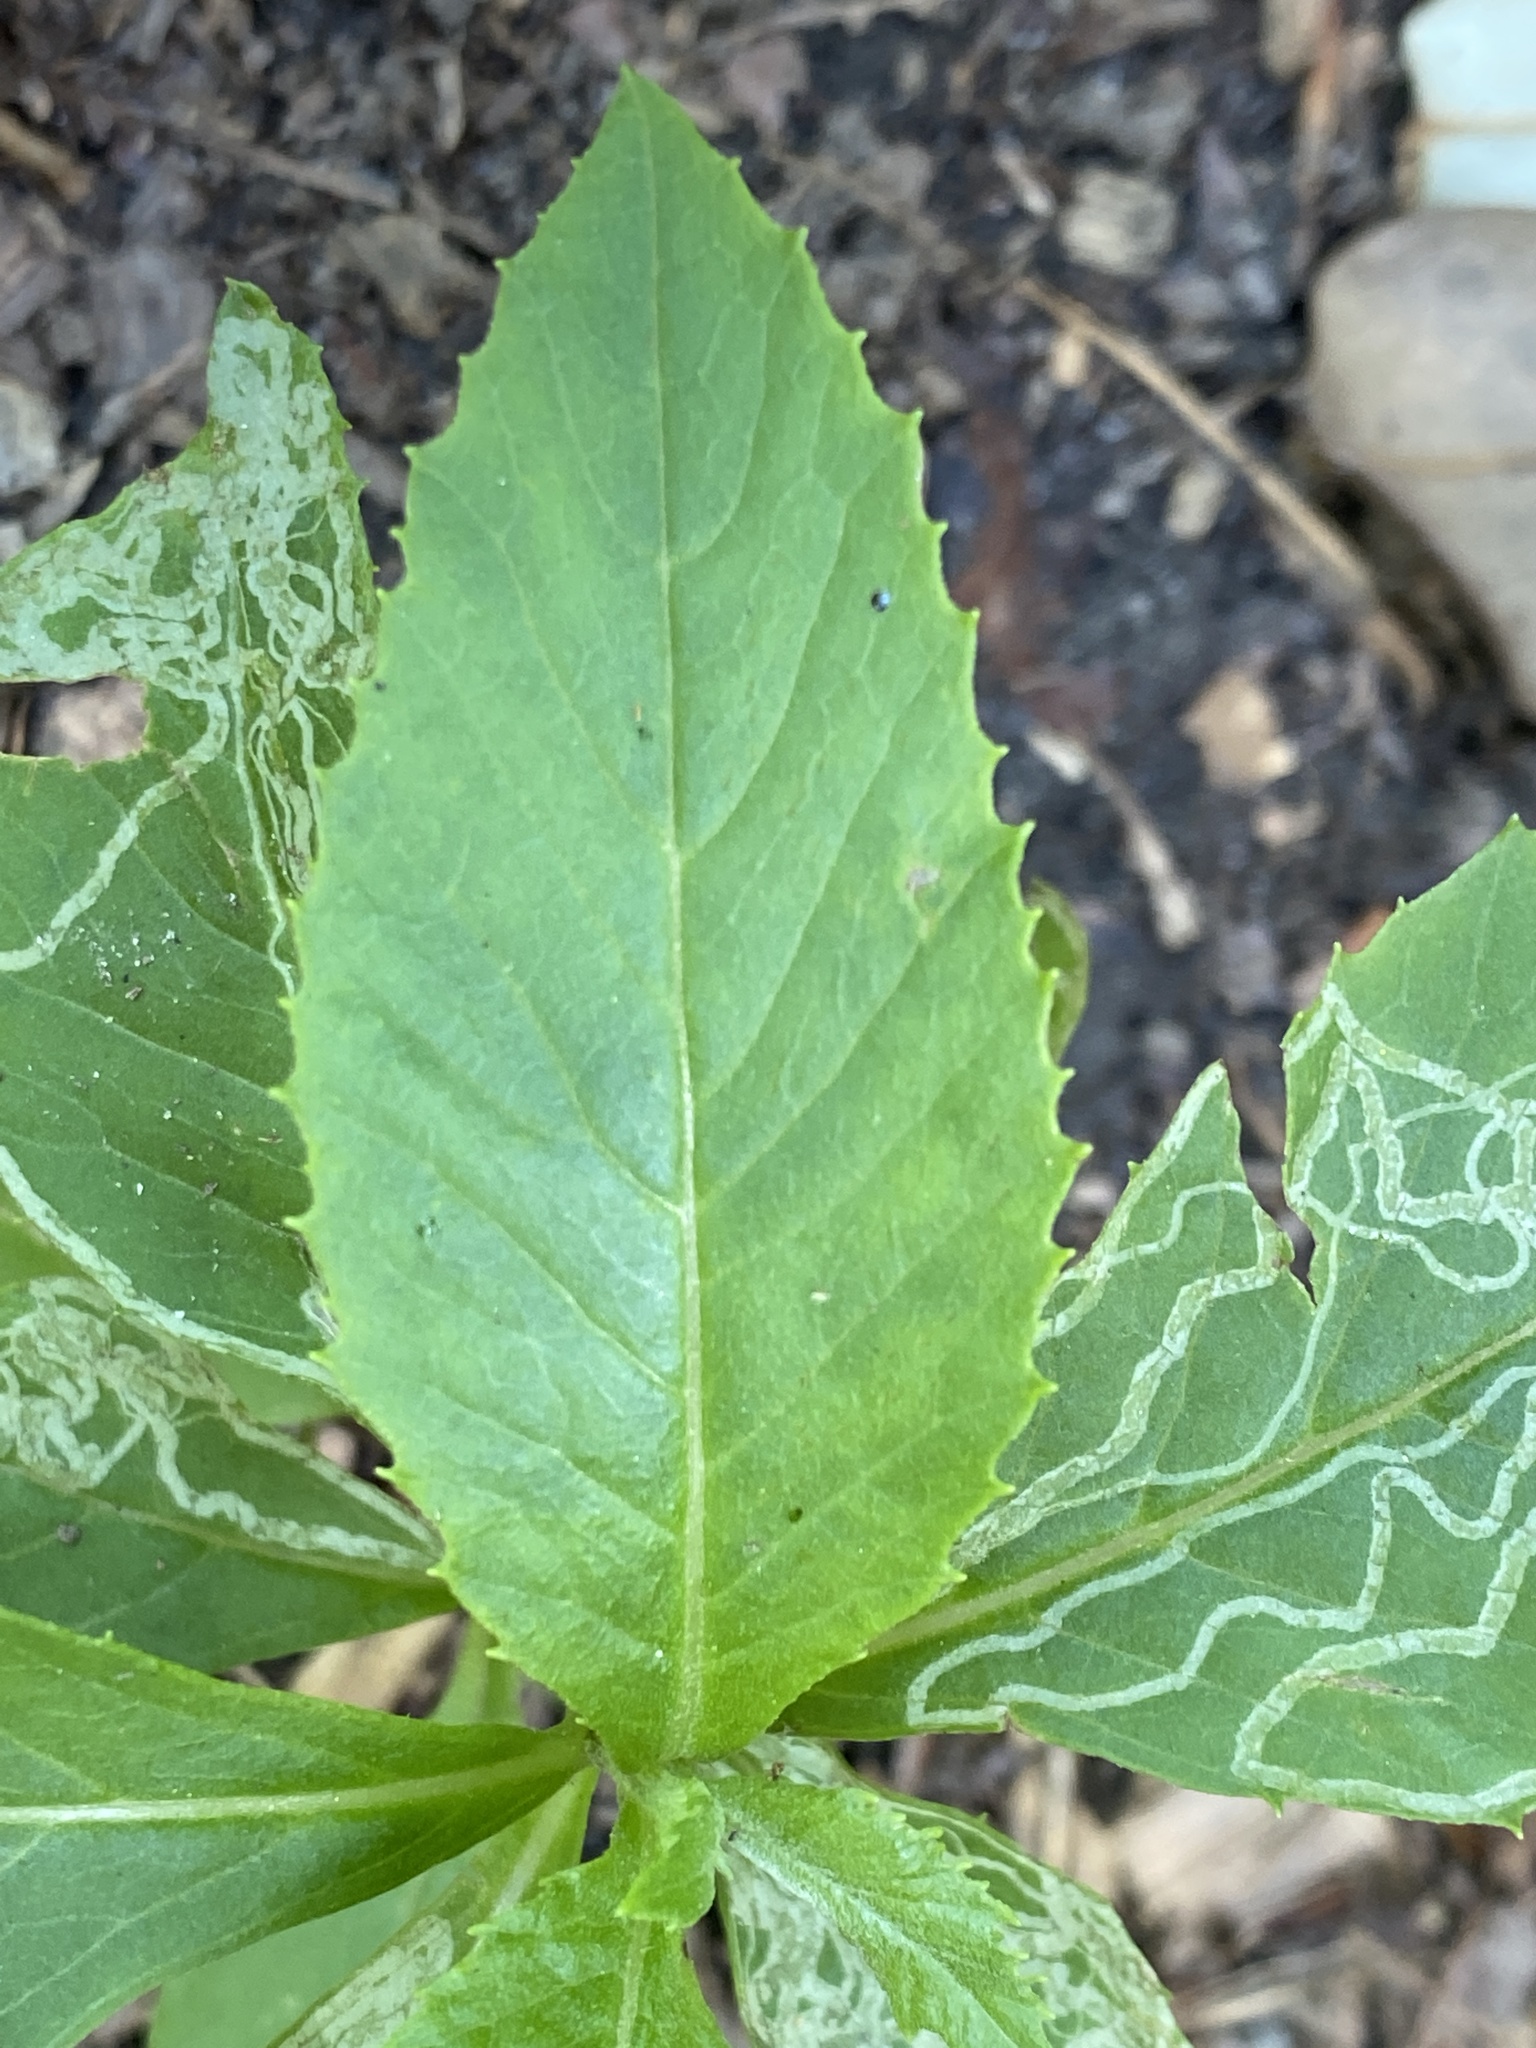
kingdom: Plantae
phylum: Tracheophyta
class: Magnoliopsida
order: Asterales
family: Asteraceae
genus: Erechtites
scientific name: Erechtites hieraciifolius
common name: American burnweed
